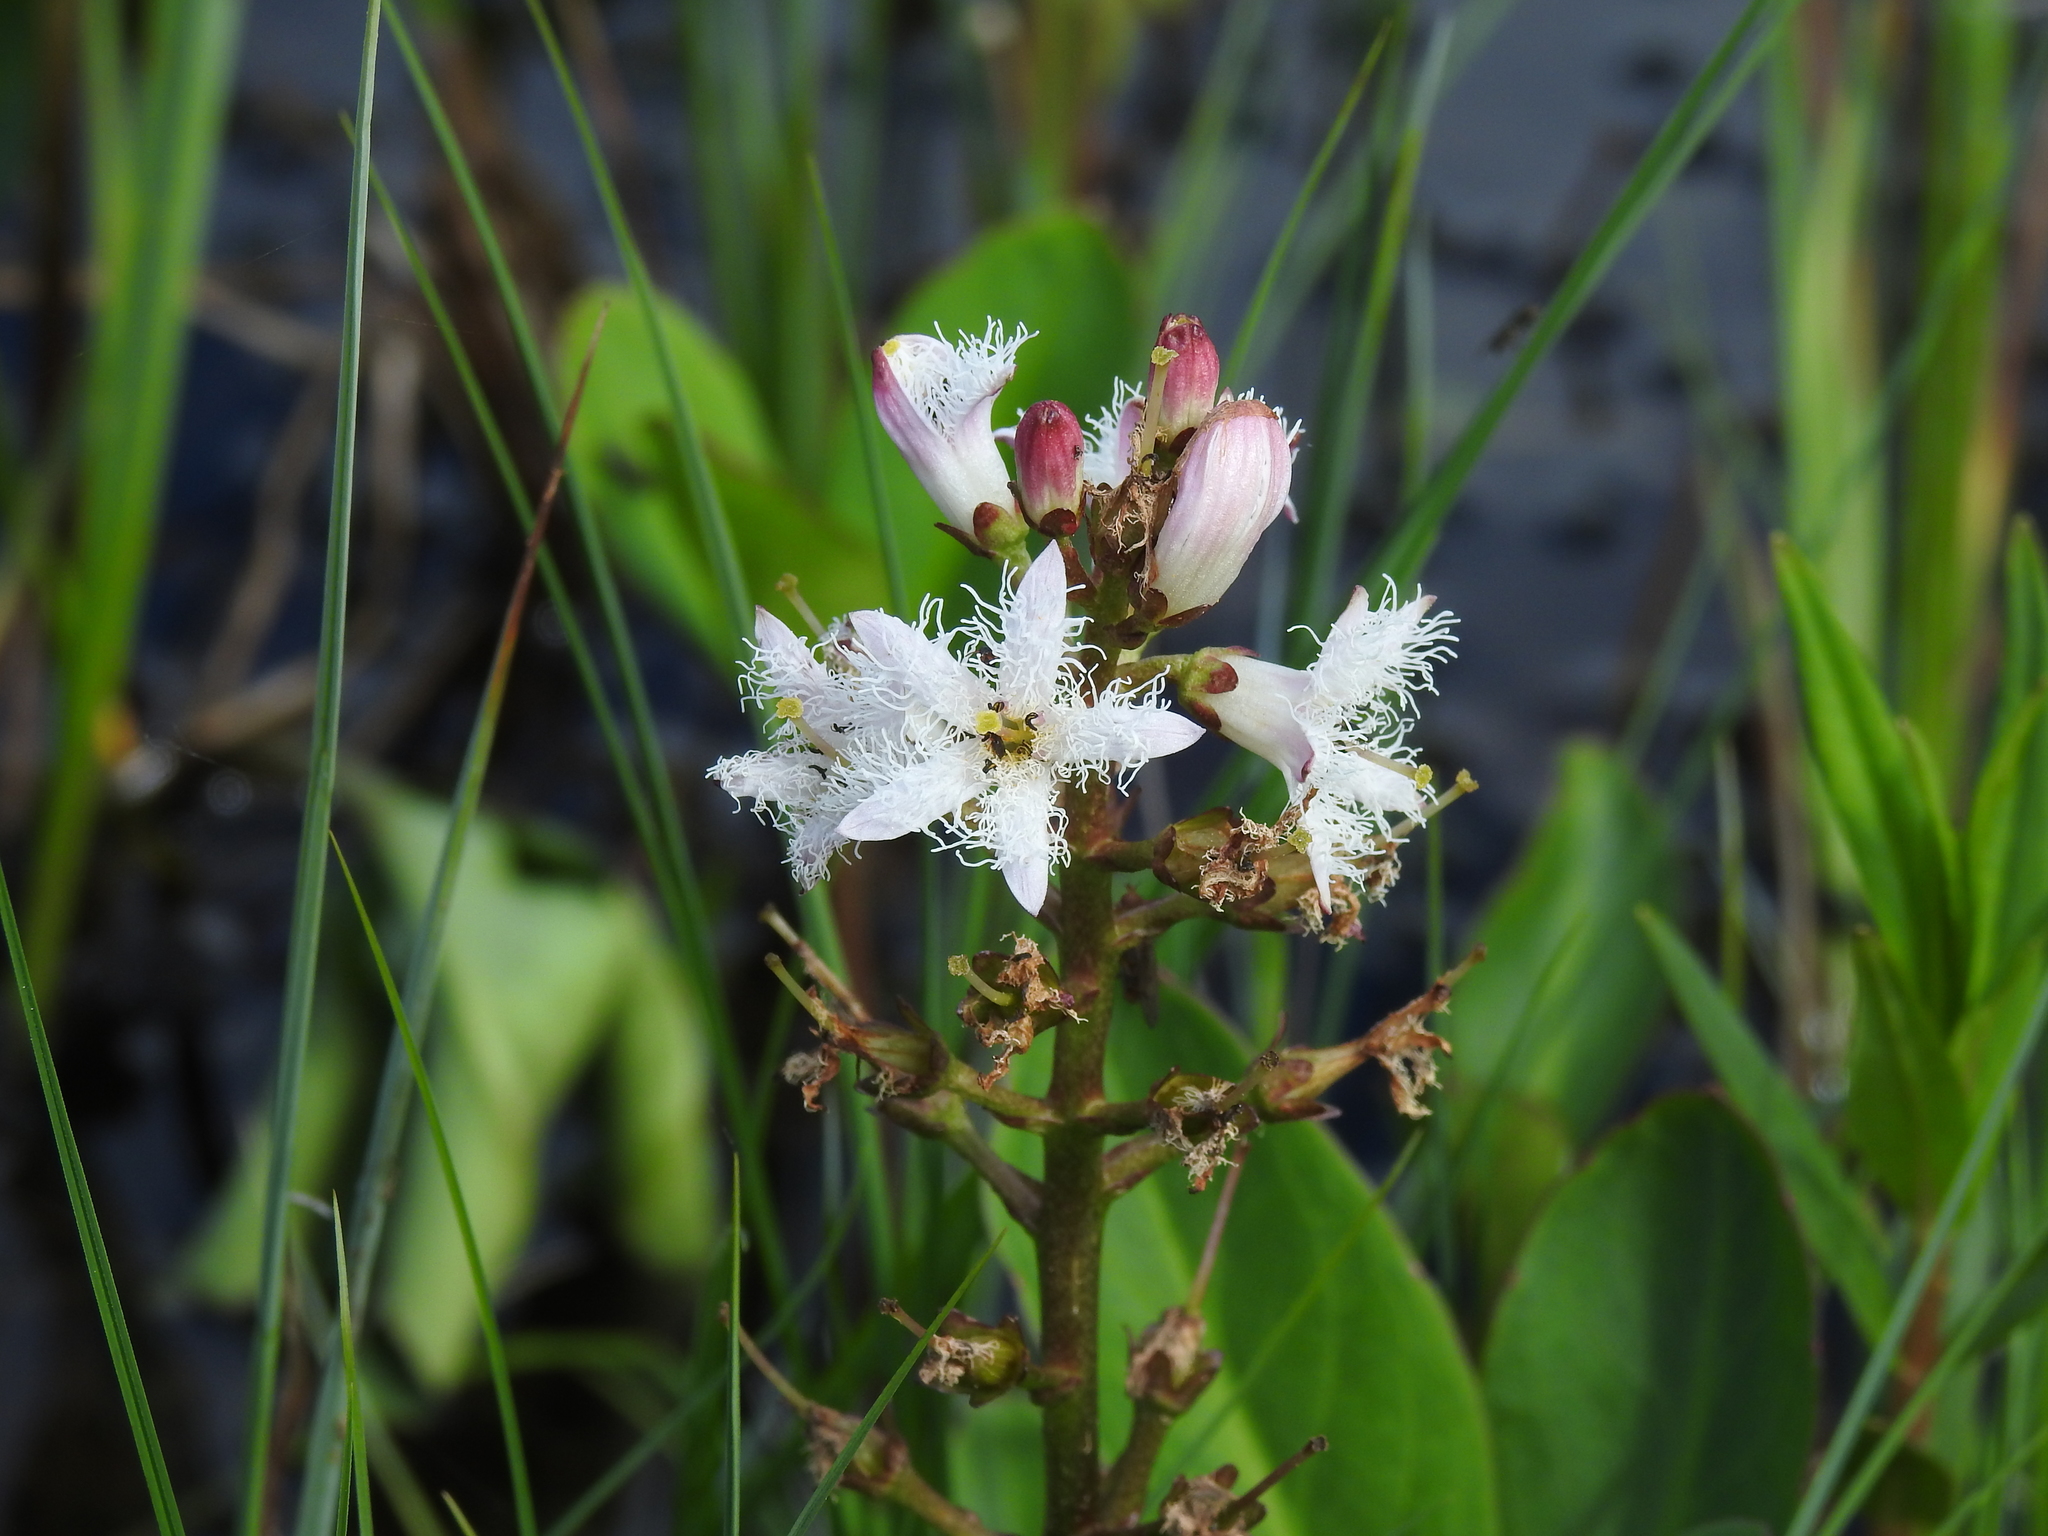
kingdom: Plantae
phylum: Tracheophyta
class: Magnoliopsida
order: Asterales
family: Menyanthaceae
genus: Menyanthes
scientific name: Menyanthes trifoliata
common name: Bogbean
